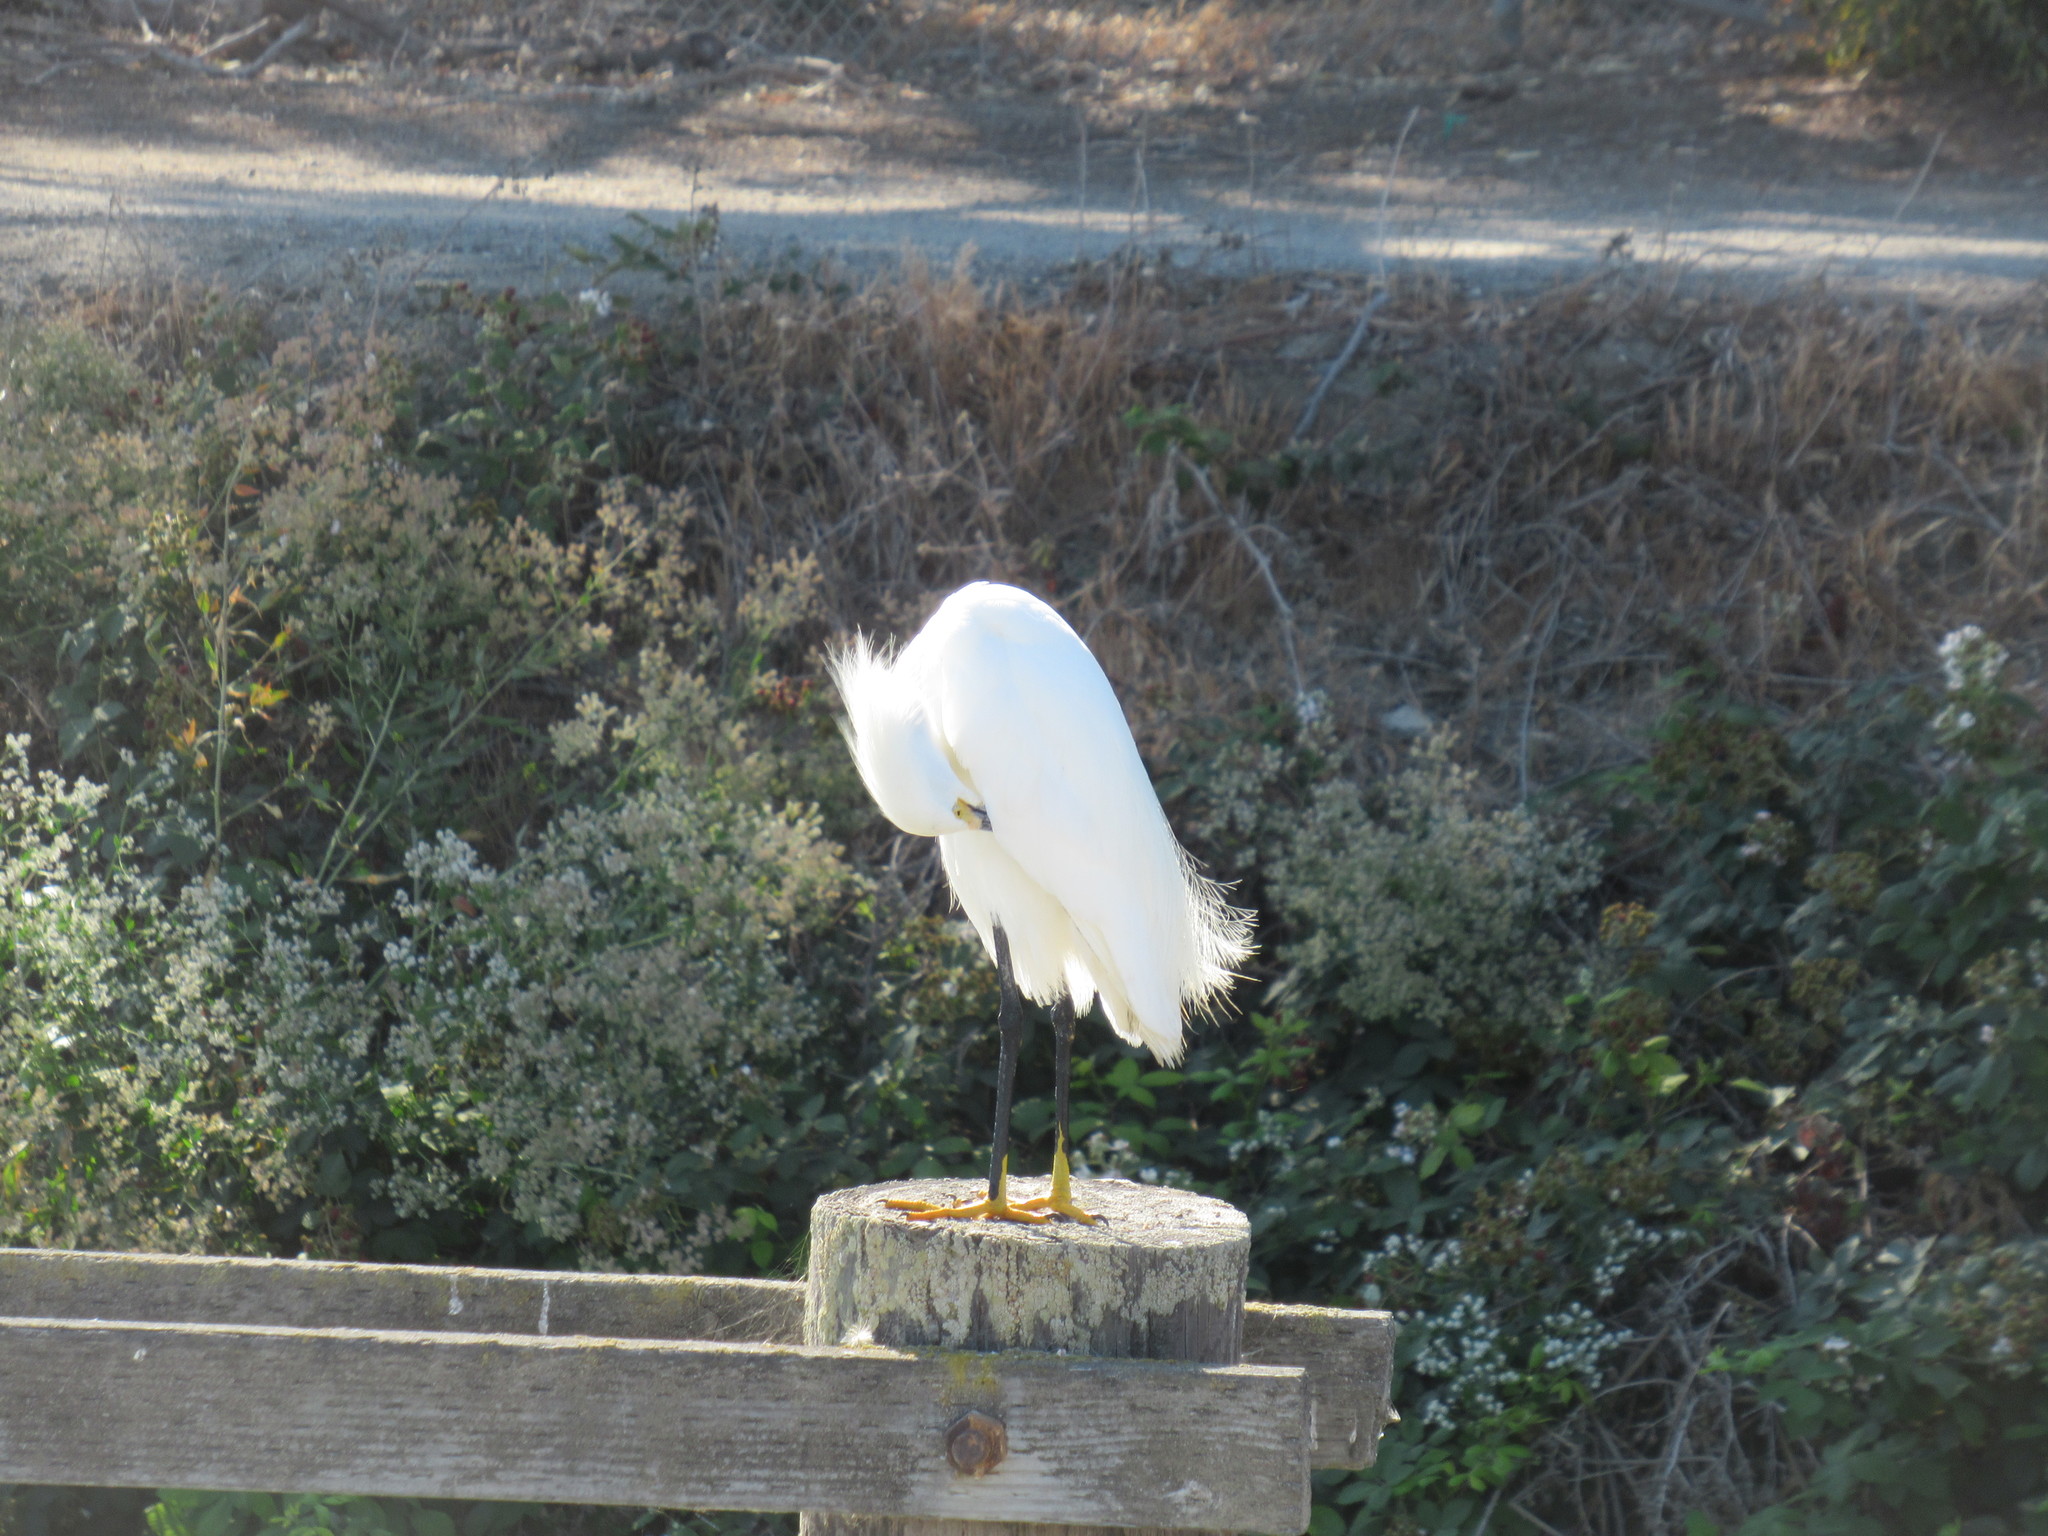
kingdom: Animalia
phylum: Chordata
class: Aves
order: Pelecaniformes
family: Ardeidae
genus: Egretta
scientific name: Egretta thula
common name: Snowy egret
